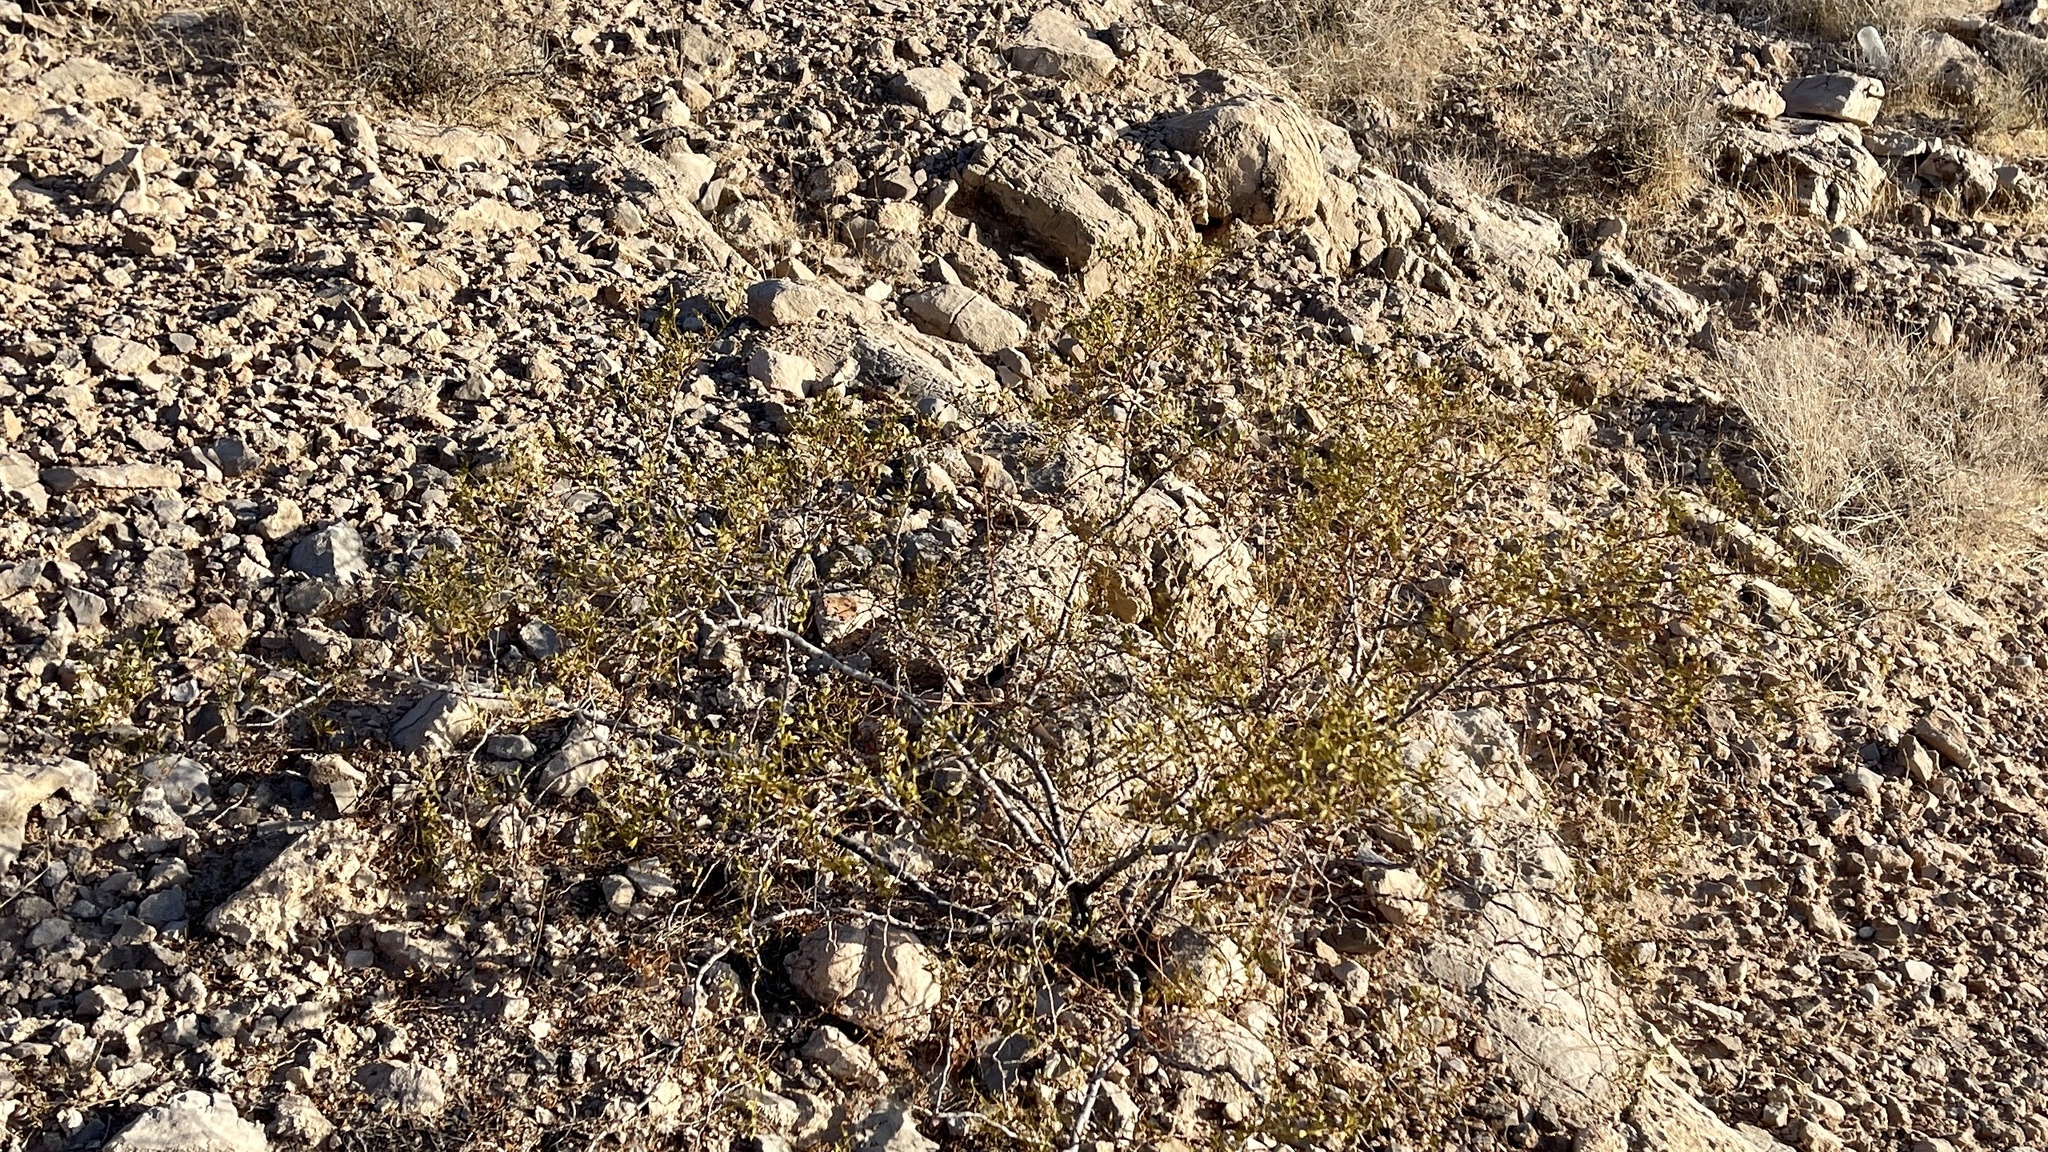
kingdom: Plantae
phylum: Tracheophyta
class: Magnoliopsida
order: Zygophyllales
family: Zygophyllaceae
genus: Larrea
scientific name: Larrea tridentata
